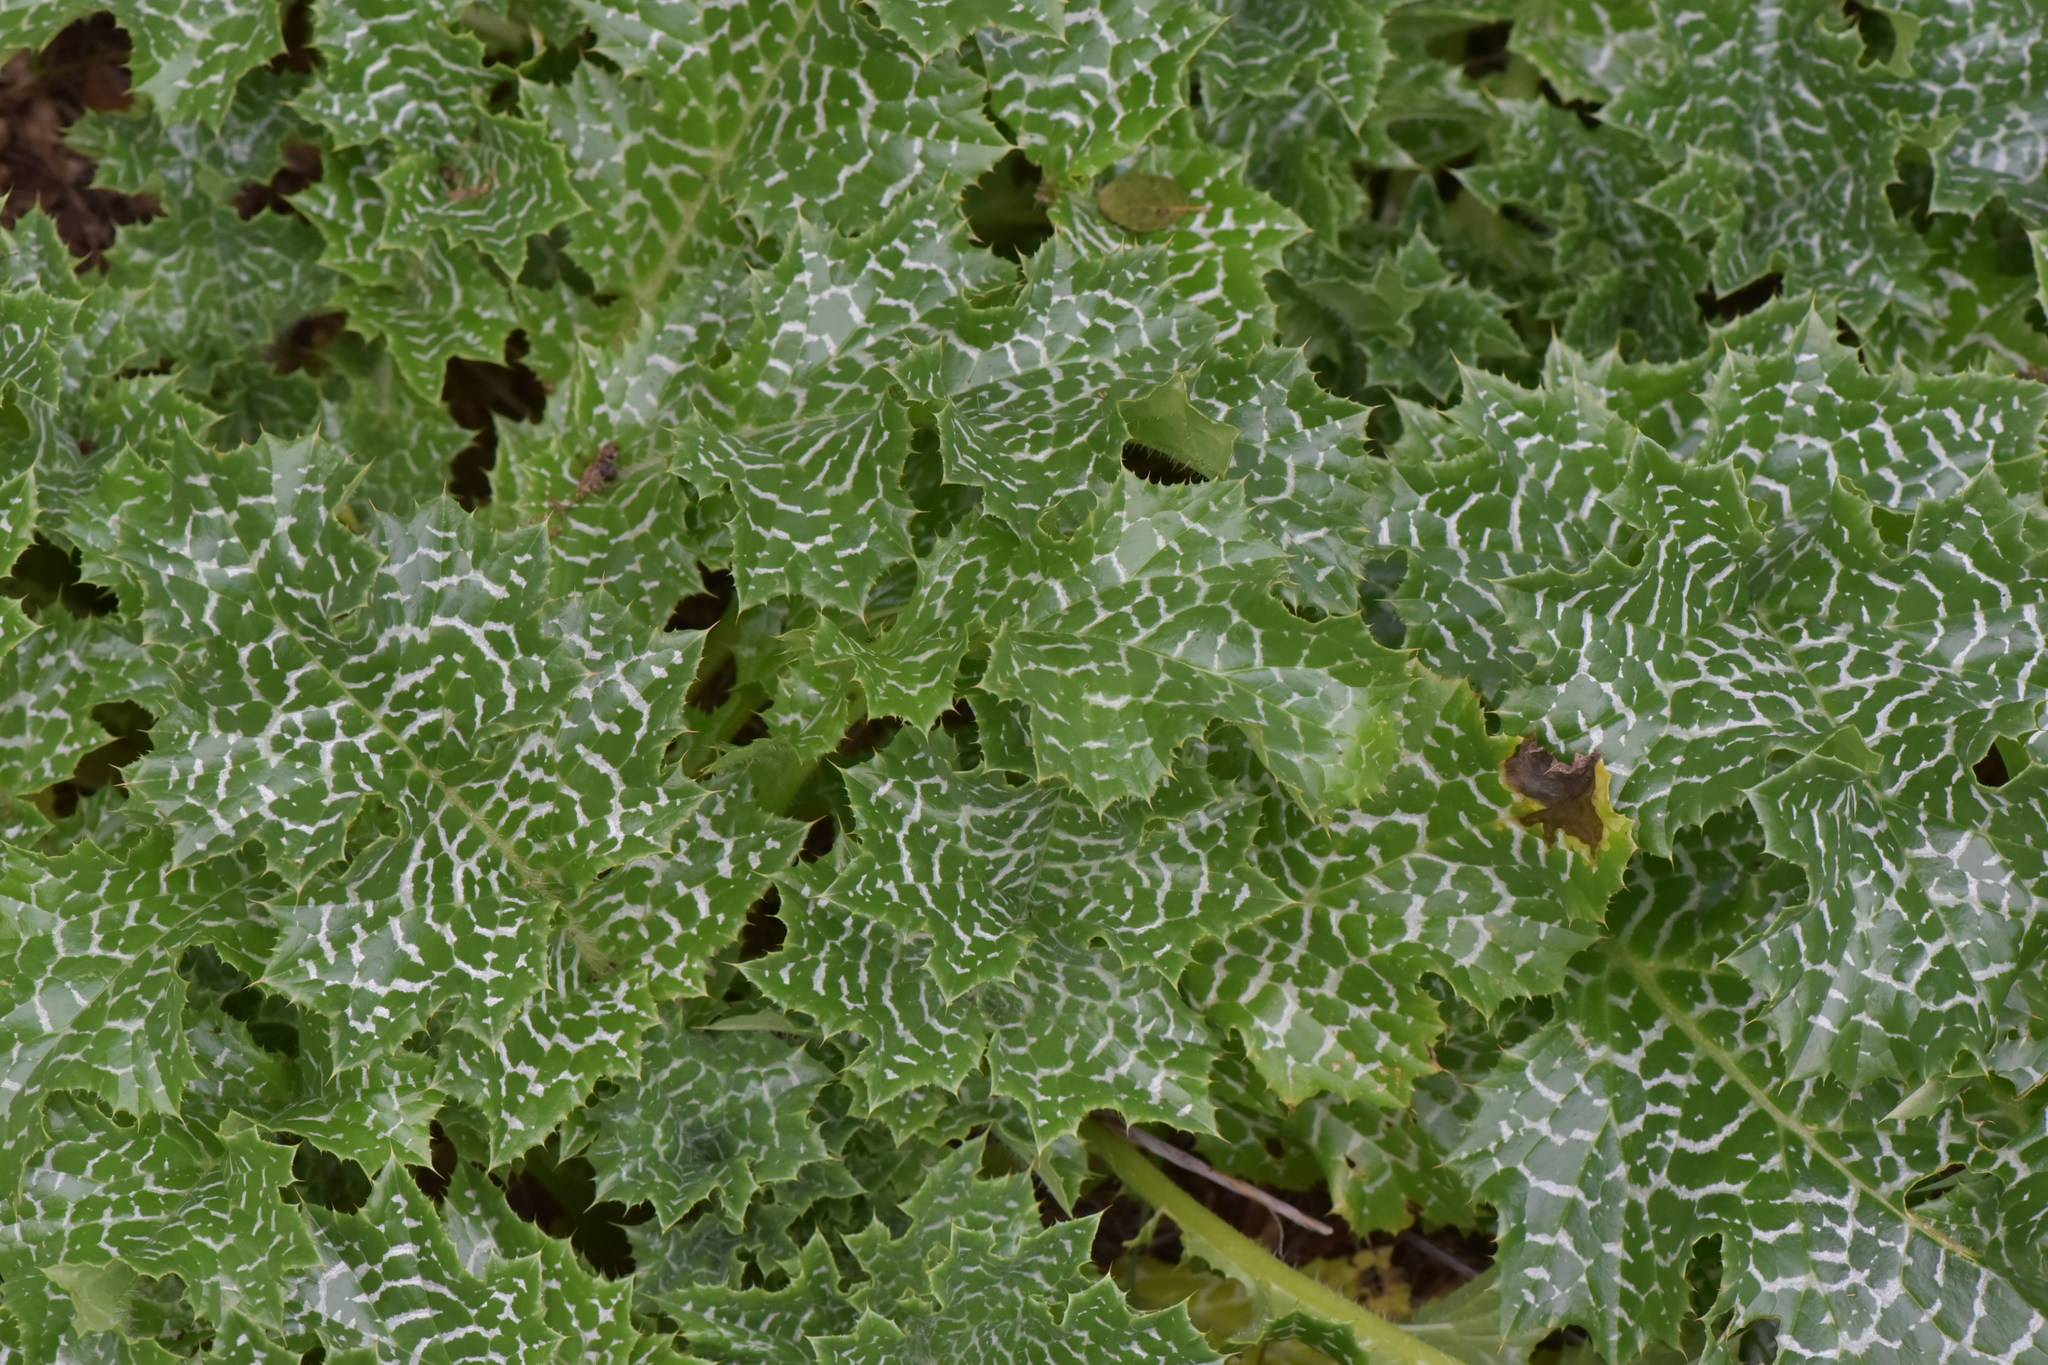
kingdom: Plantae
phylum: Tracheophyta
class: Magnoliopsida
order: Asterales
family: Asteraceae
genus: Silybum
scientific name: Silybum marianum
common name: Milk thistle
